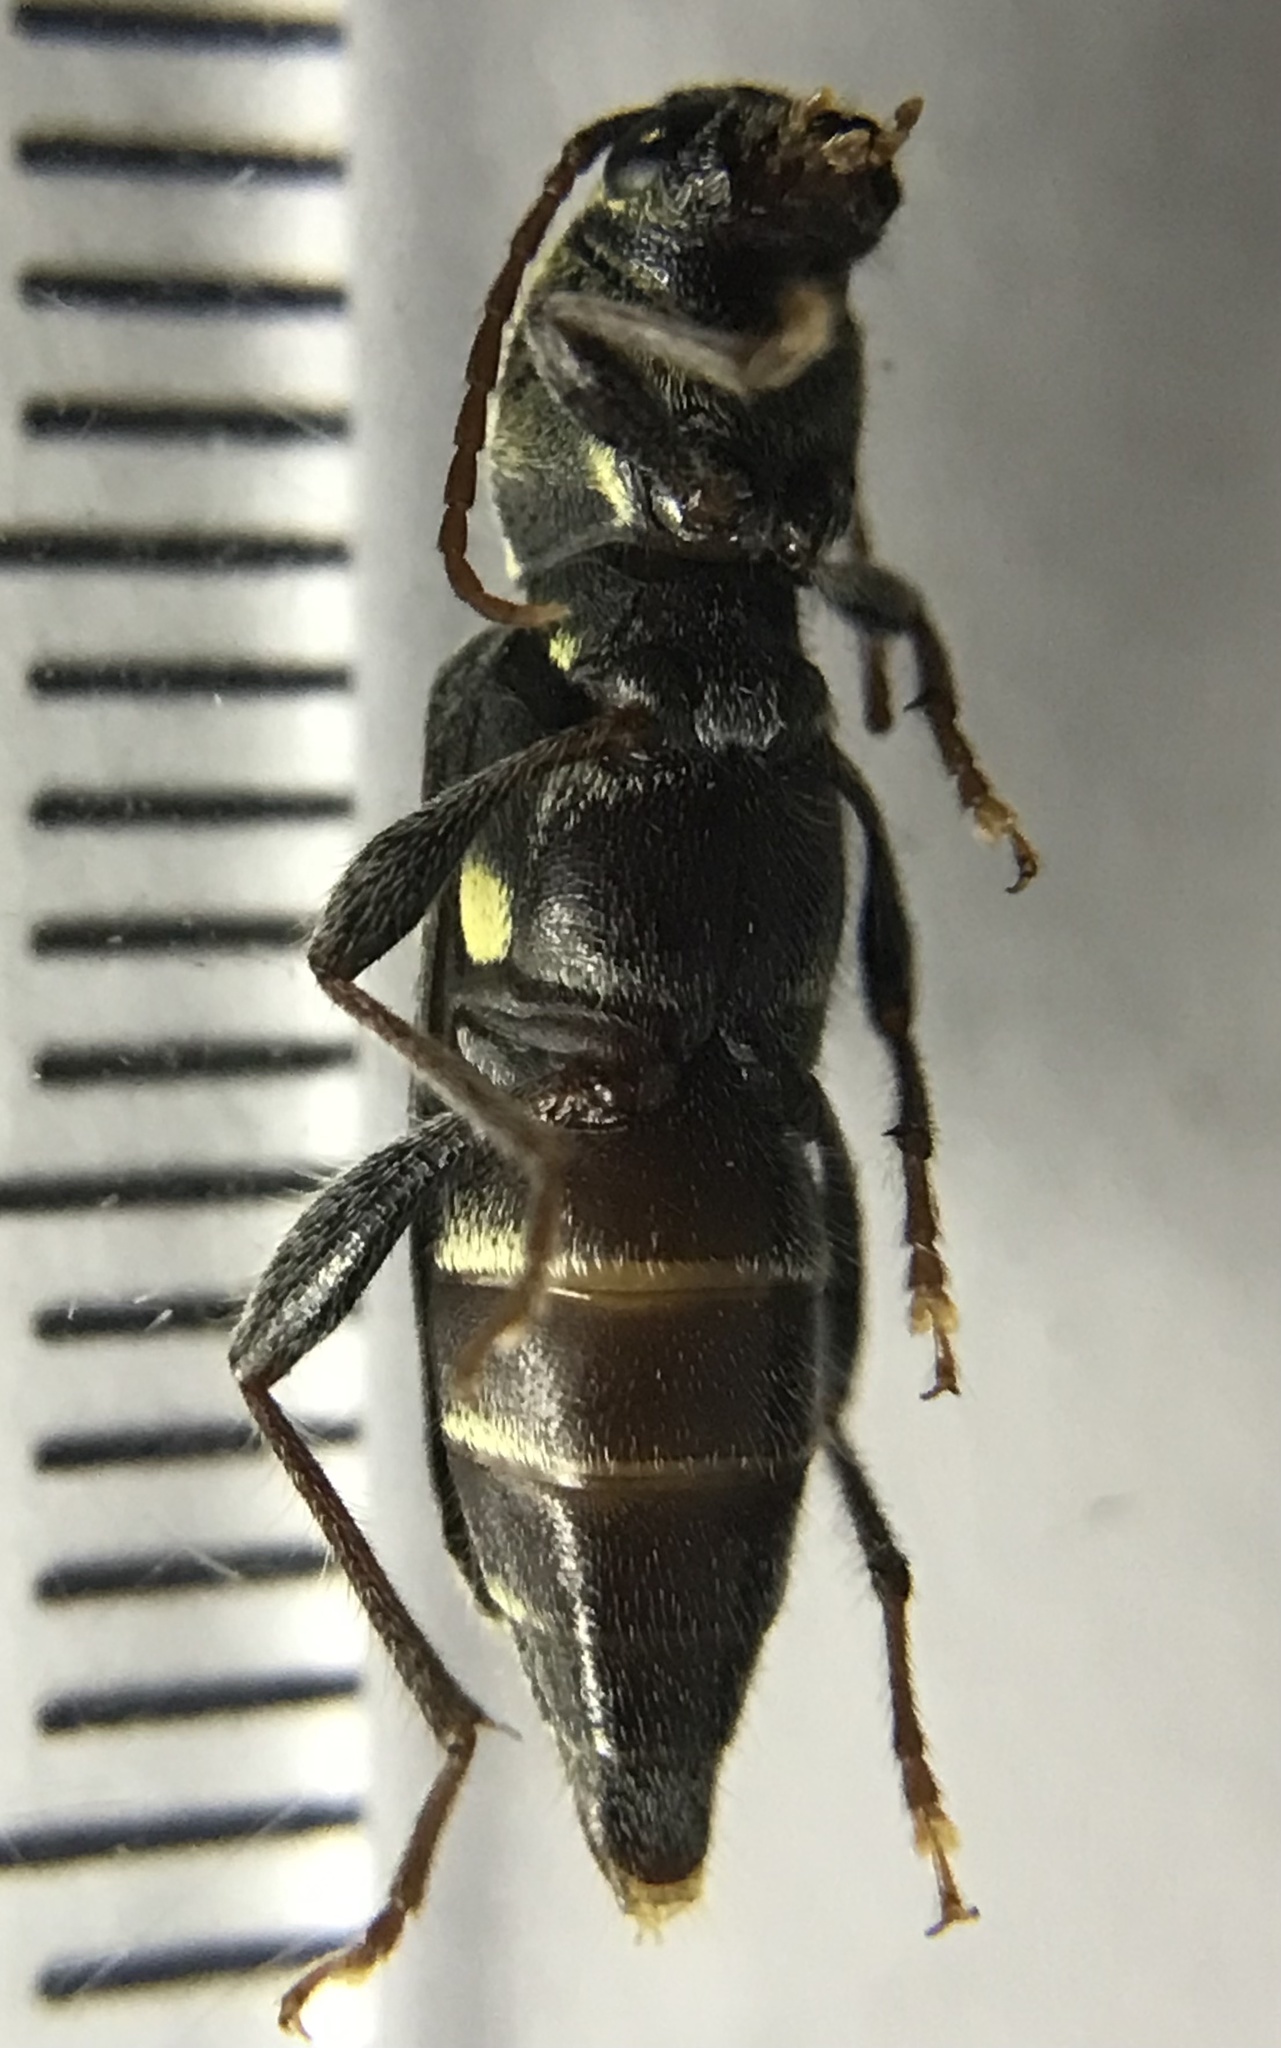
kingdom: Animalia
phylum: Arthropoda
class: Insecta
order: Coleoptera
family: Cerambycidae
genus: Xylotrechus
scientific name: Xylotrechus colonus
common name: Long-horned beetle
